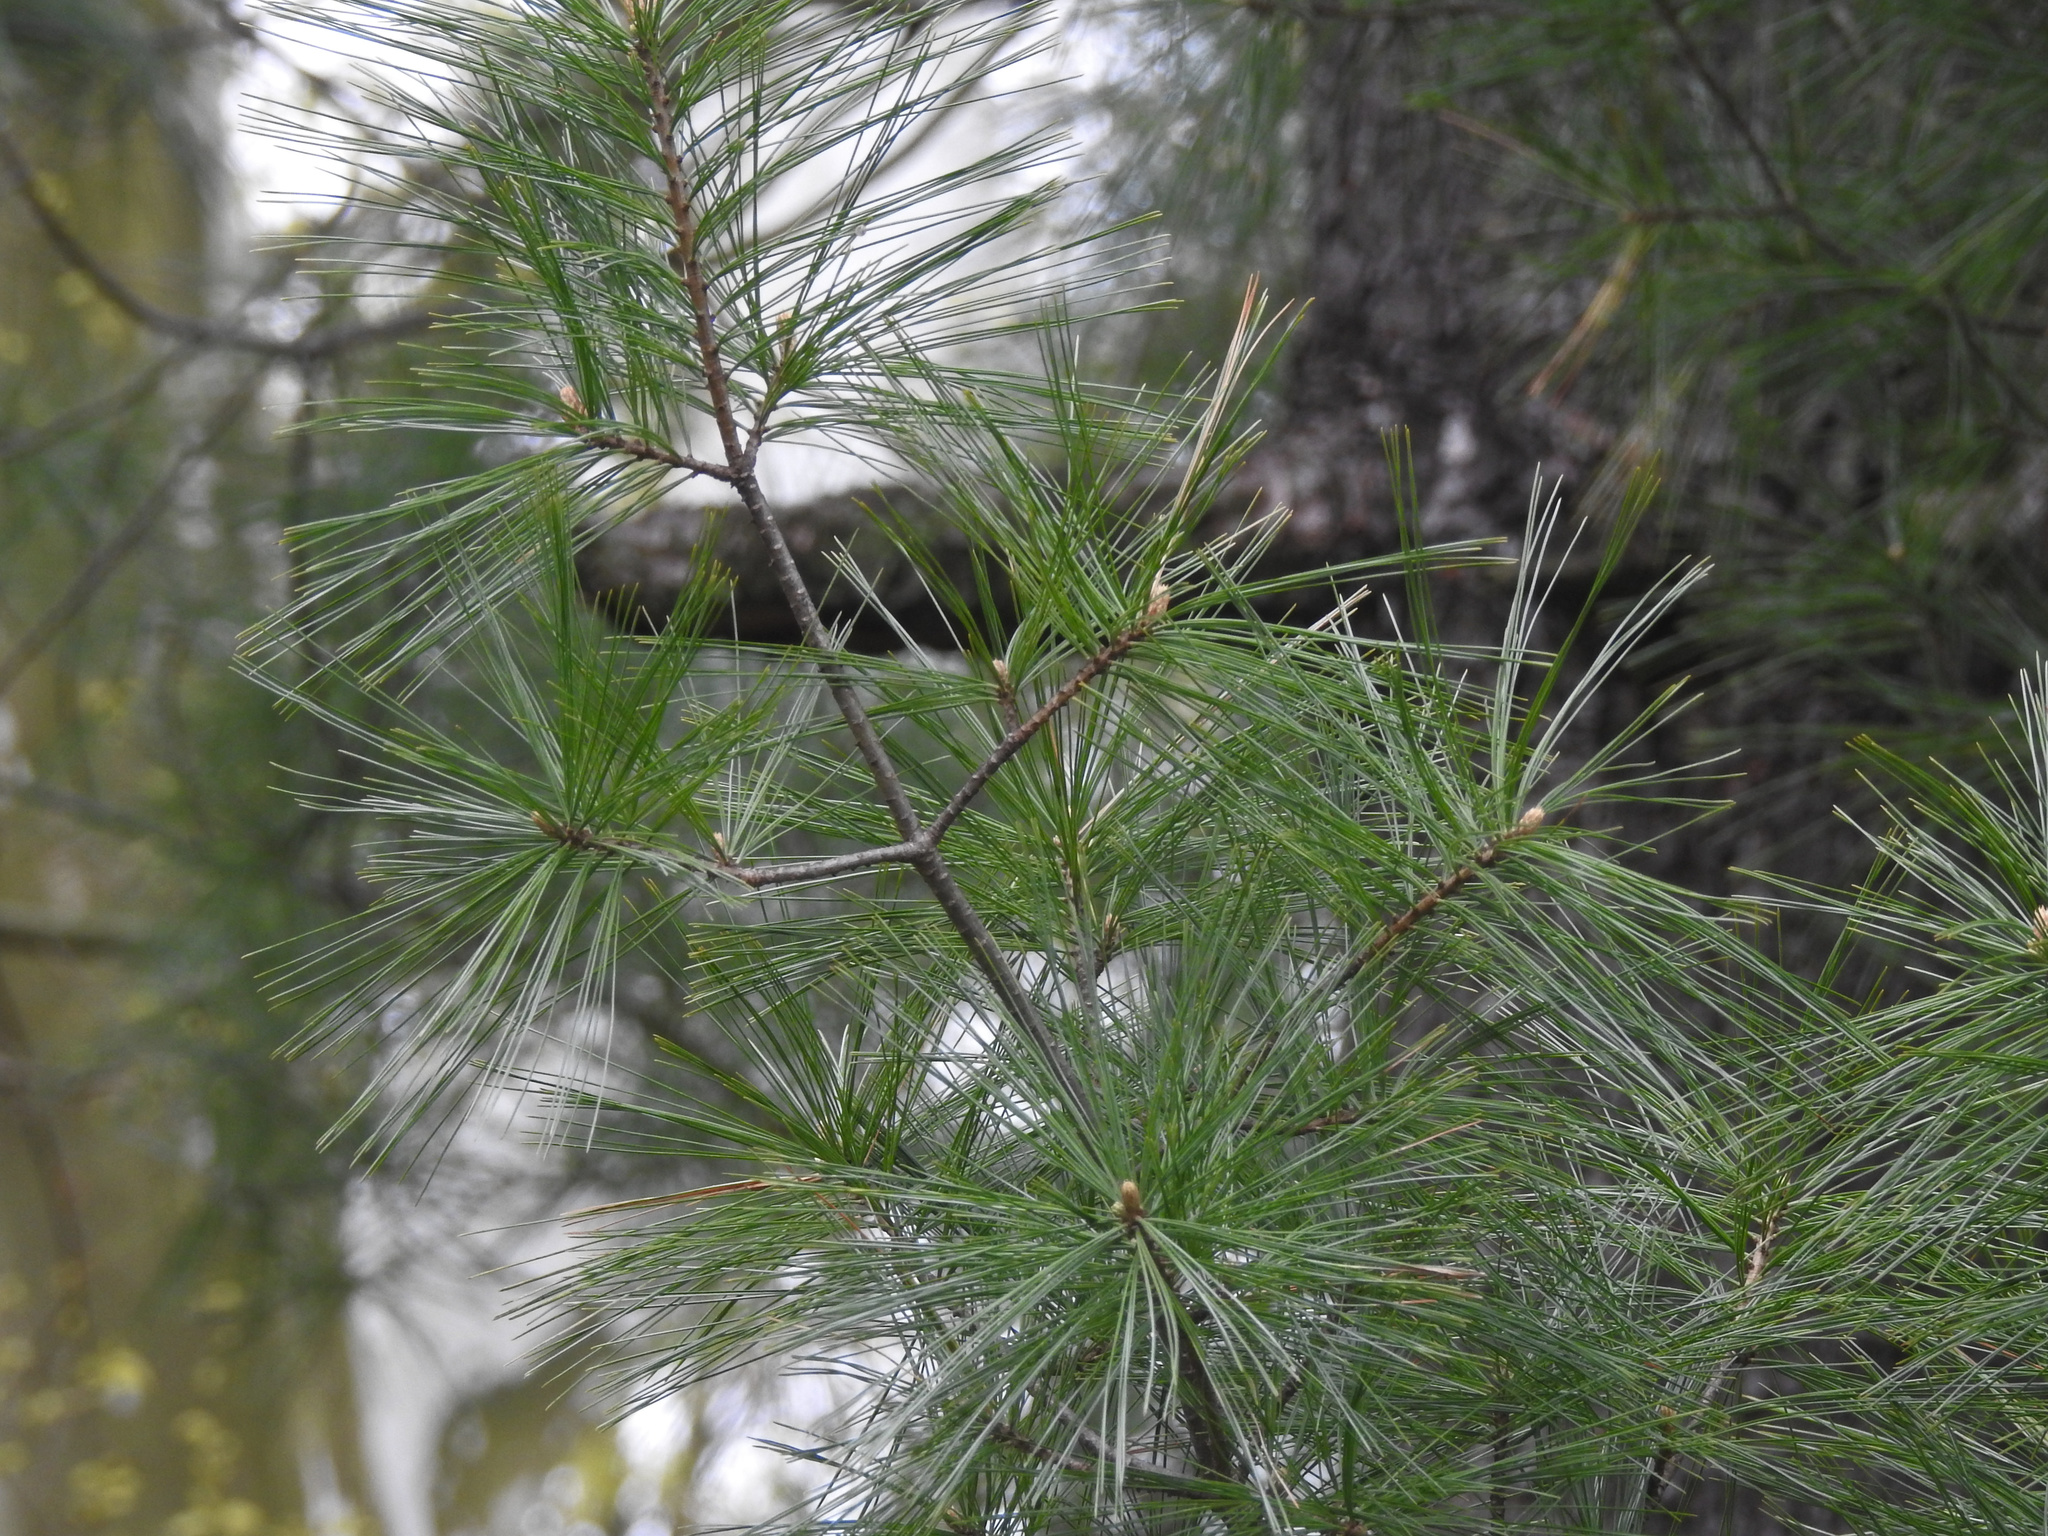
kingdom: Plantae
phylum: Tracheophyta
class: Pinopsida
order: Pinales
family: Pinaceae
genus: Pinus
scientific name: Pinus strobus
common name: Weymouth pine
